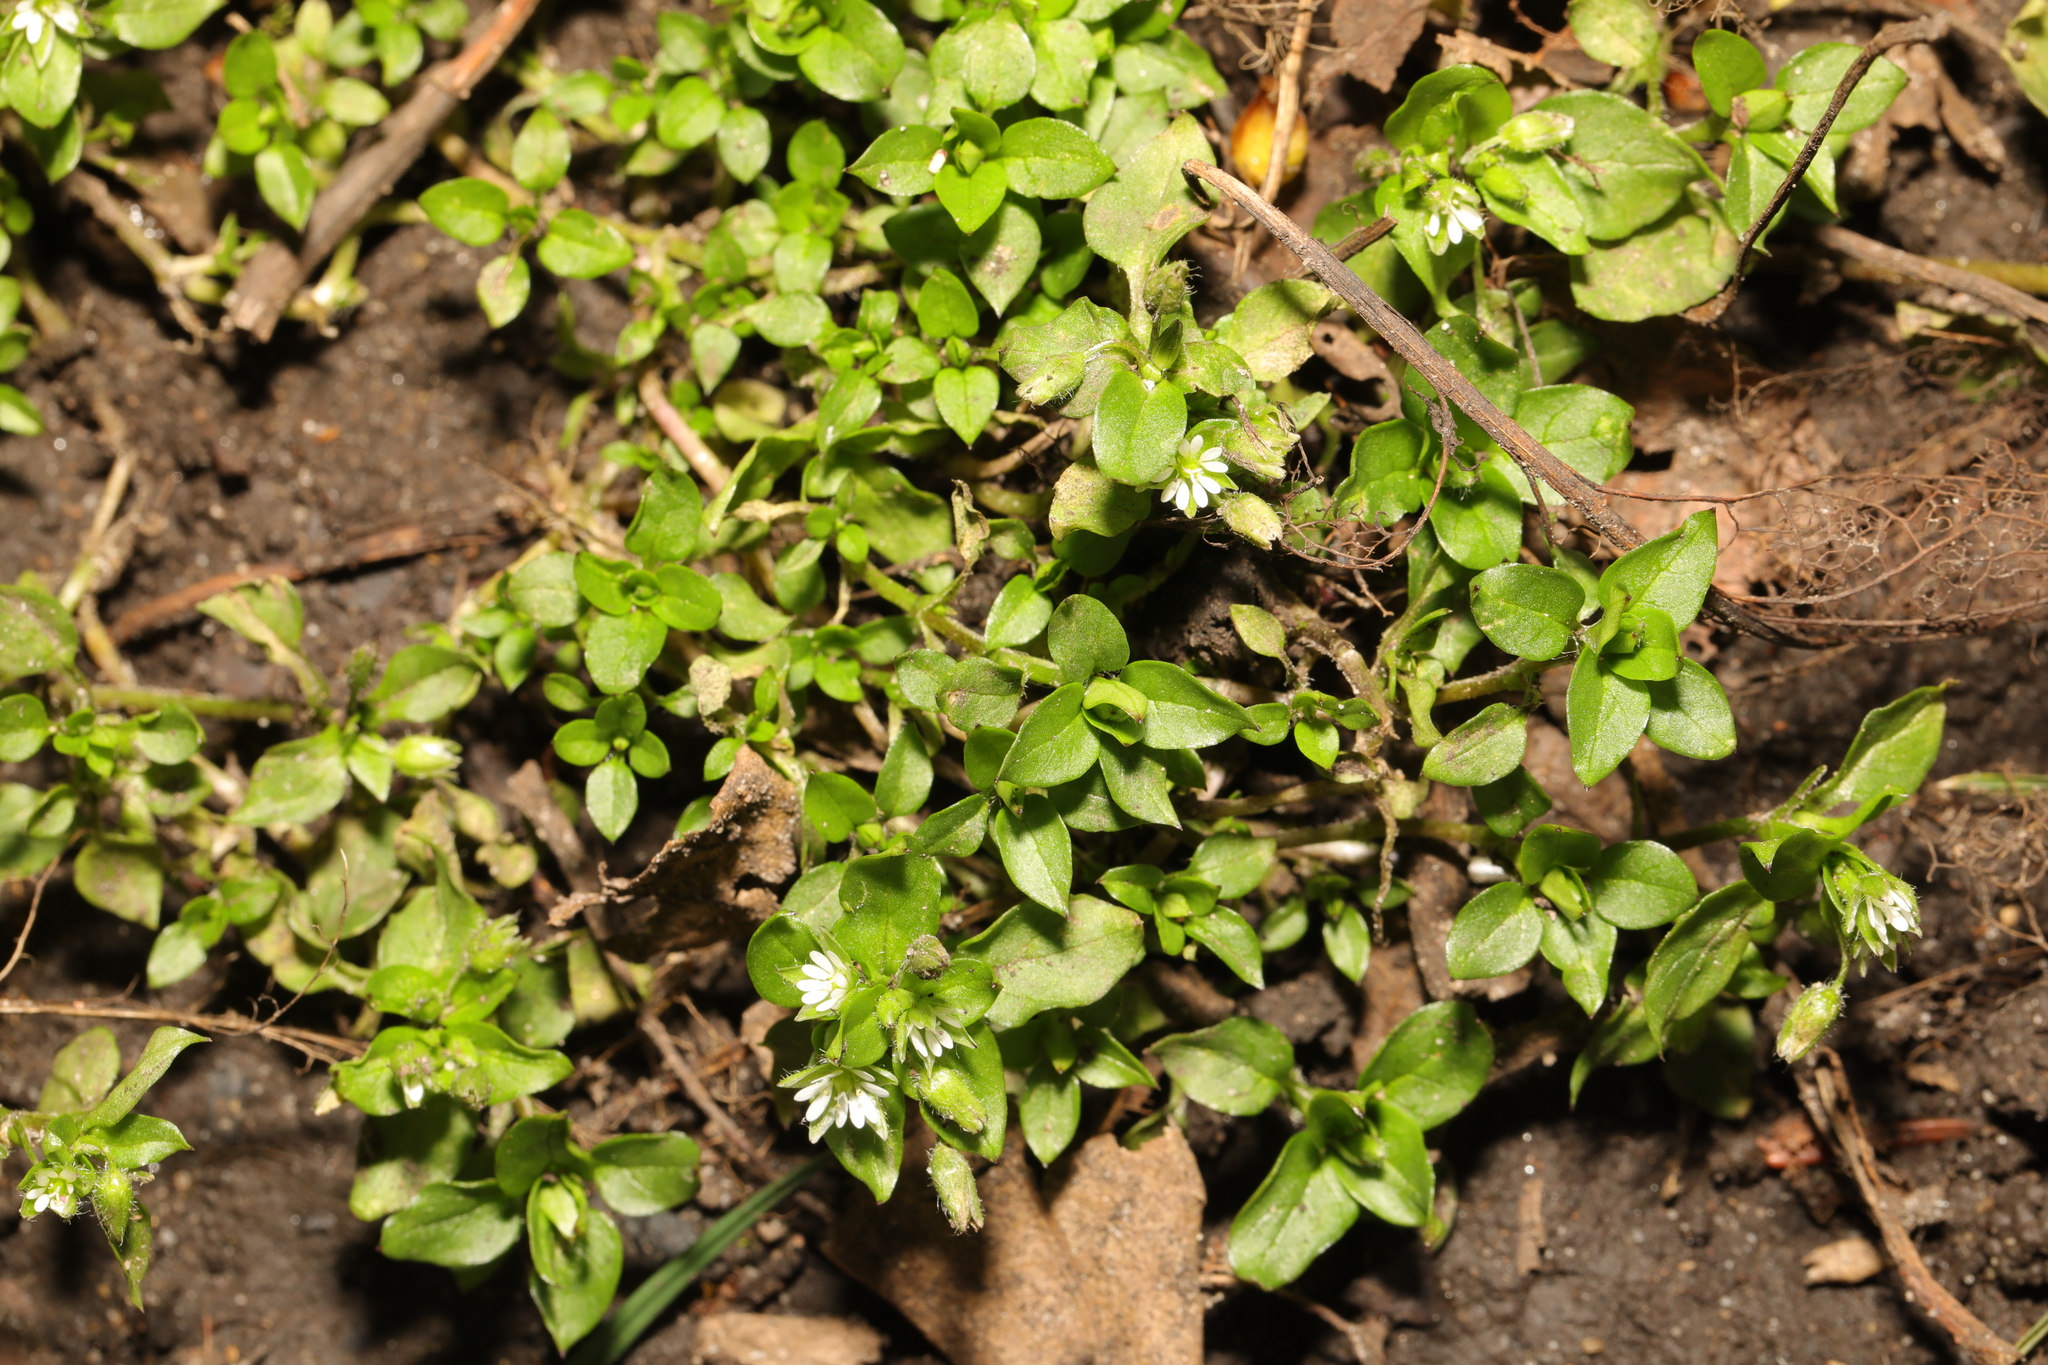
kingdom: Plantae
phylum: Tracheophyta
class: Magnoliopsida
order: Caryophyllales
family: Caryophyllaceae
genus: Stellaria
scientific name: Stellaria media
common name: Common chickweed
